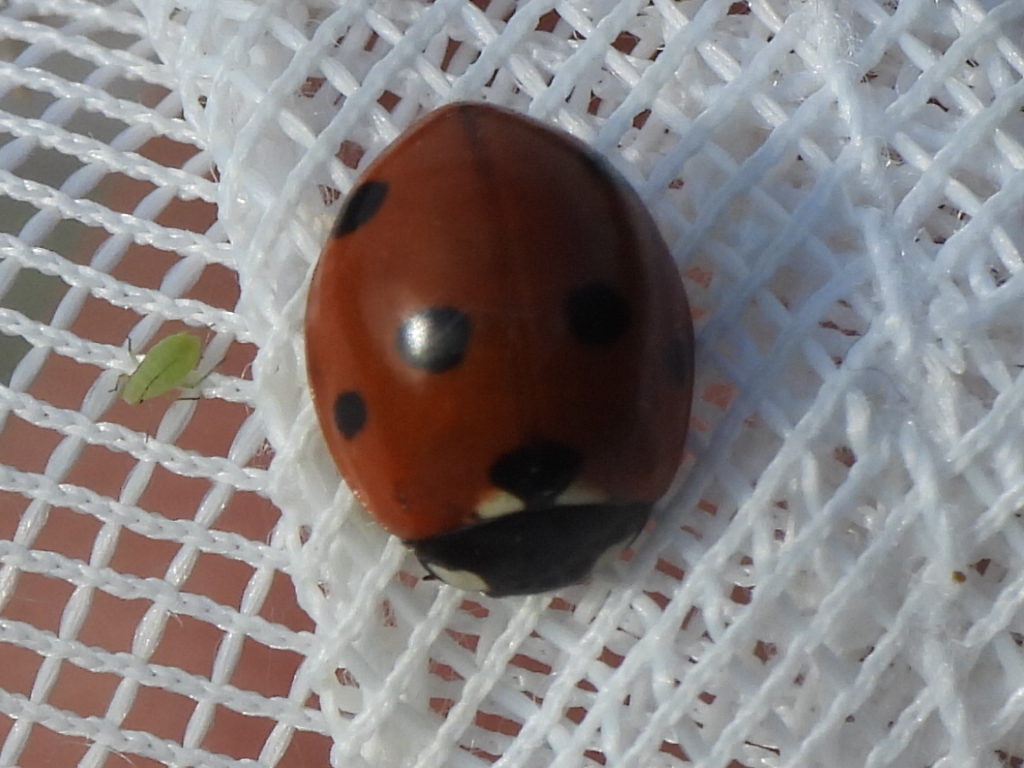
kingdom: Animalia
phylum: Arthropoda
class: Insecta
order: Coleoptera
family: Coccinellidae
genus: Coccinella
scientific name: Coccinella septempunctata
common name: Sevenspotted lady beetle
